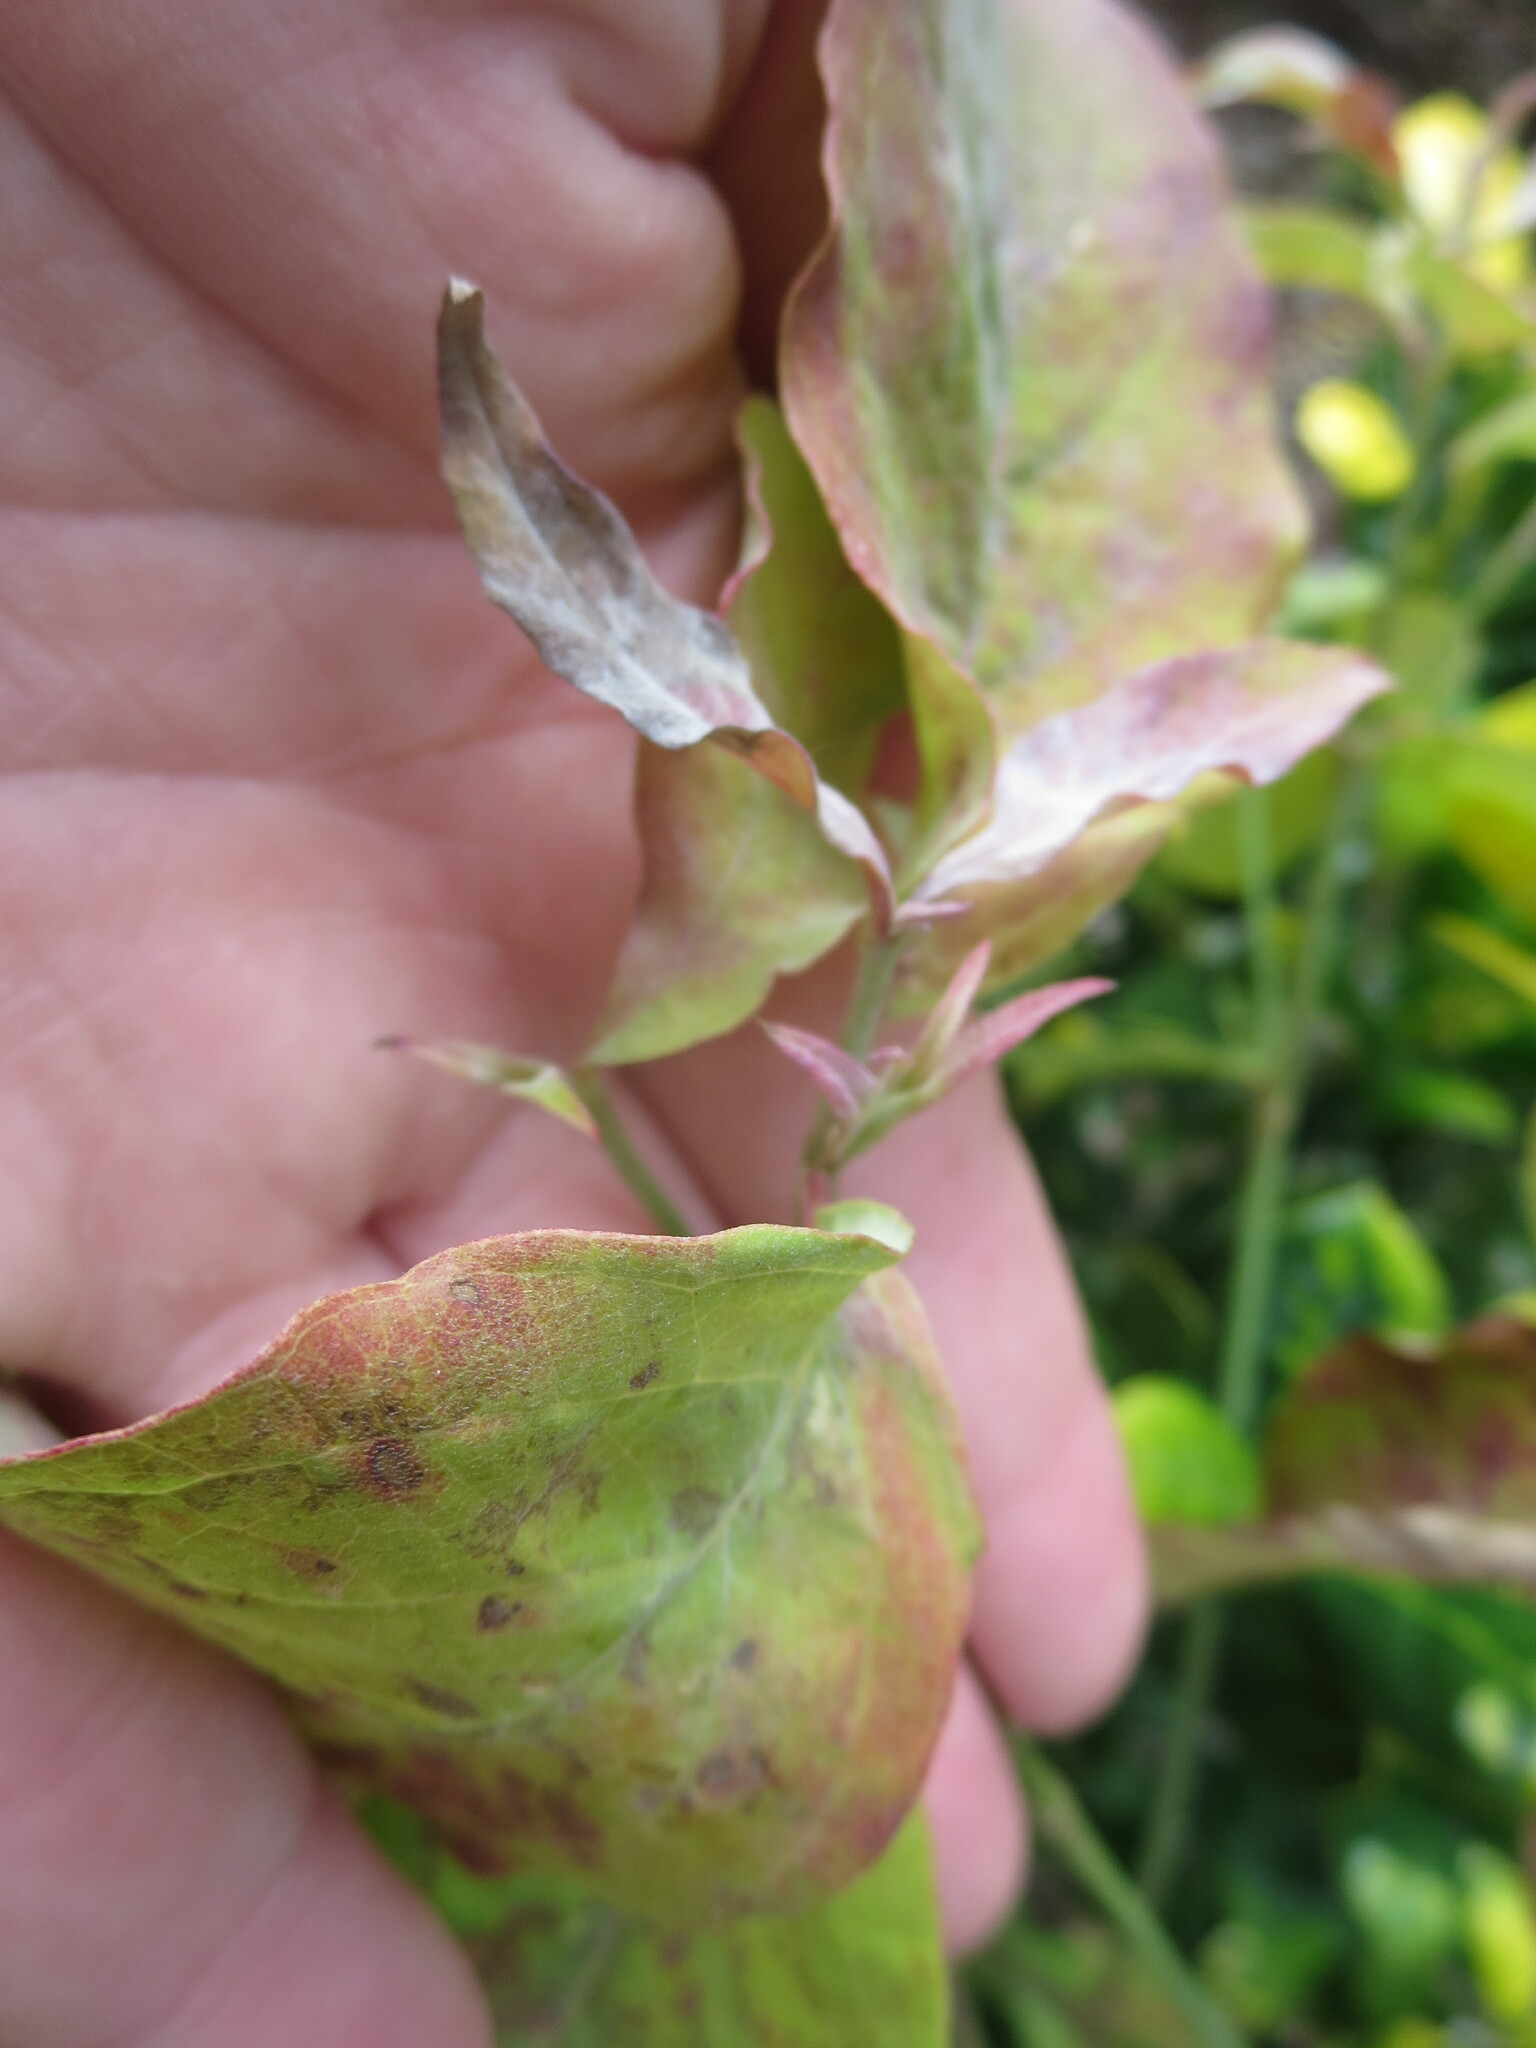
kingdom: Plantae
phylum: Tracheophyta
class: Magnoliopsida
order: Cornales
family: Cornaceae
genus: Cornus
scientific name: Cornus florida
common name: Flowering dogwood
